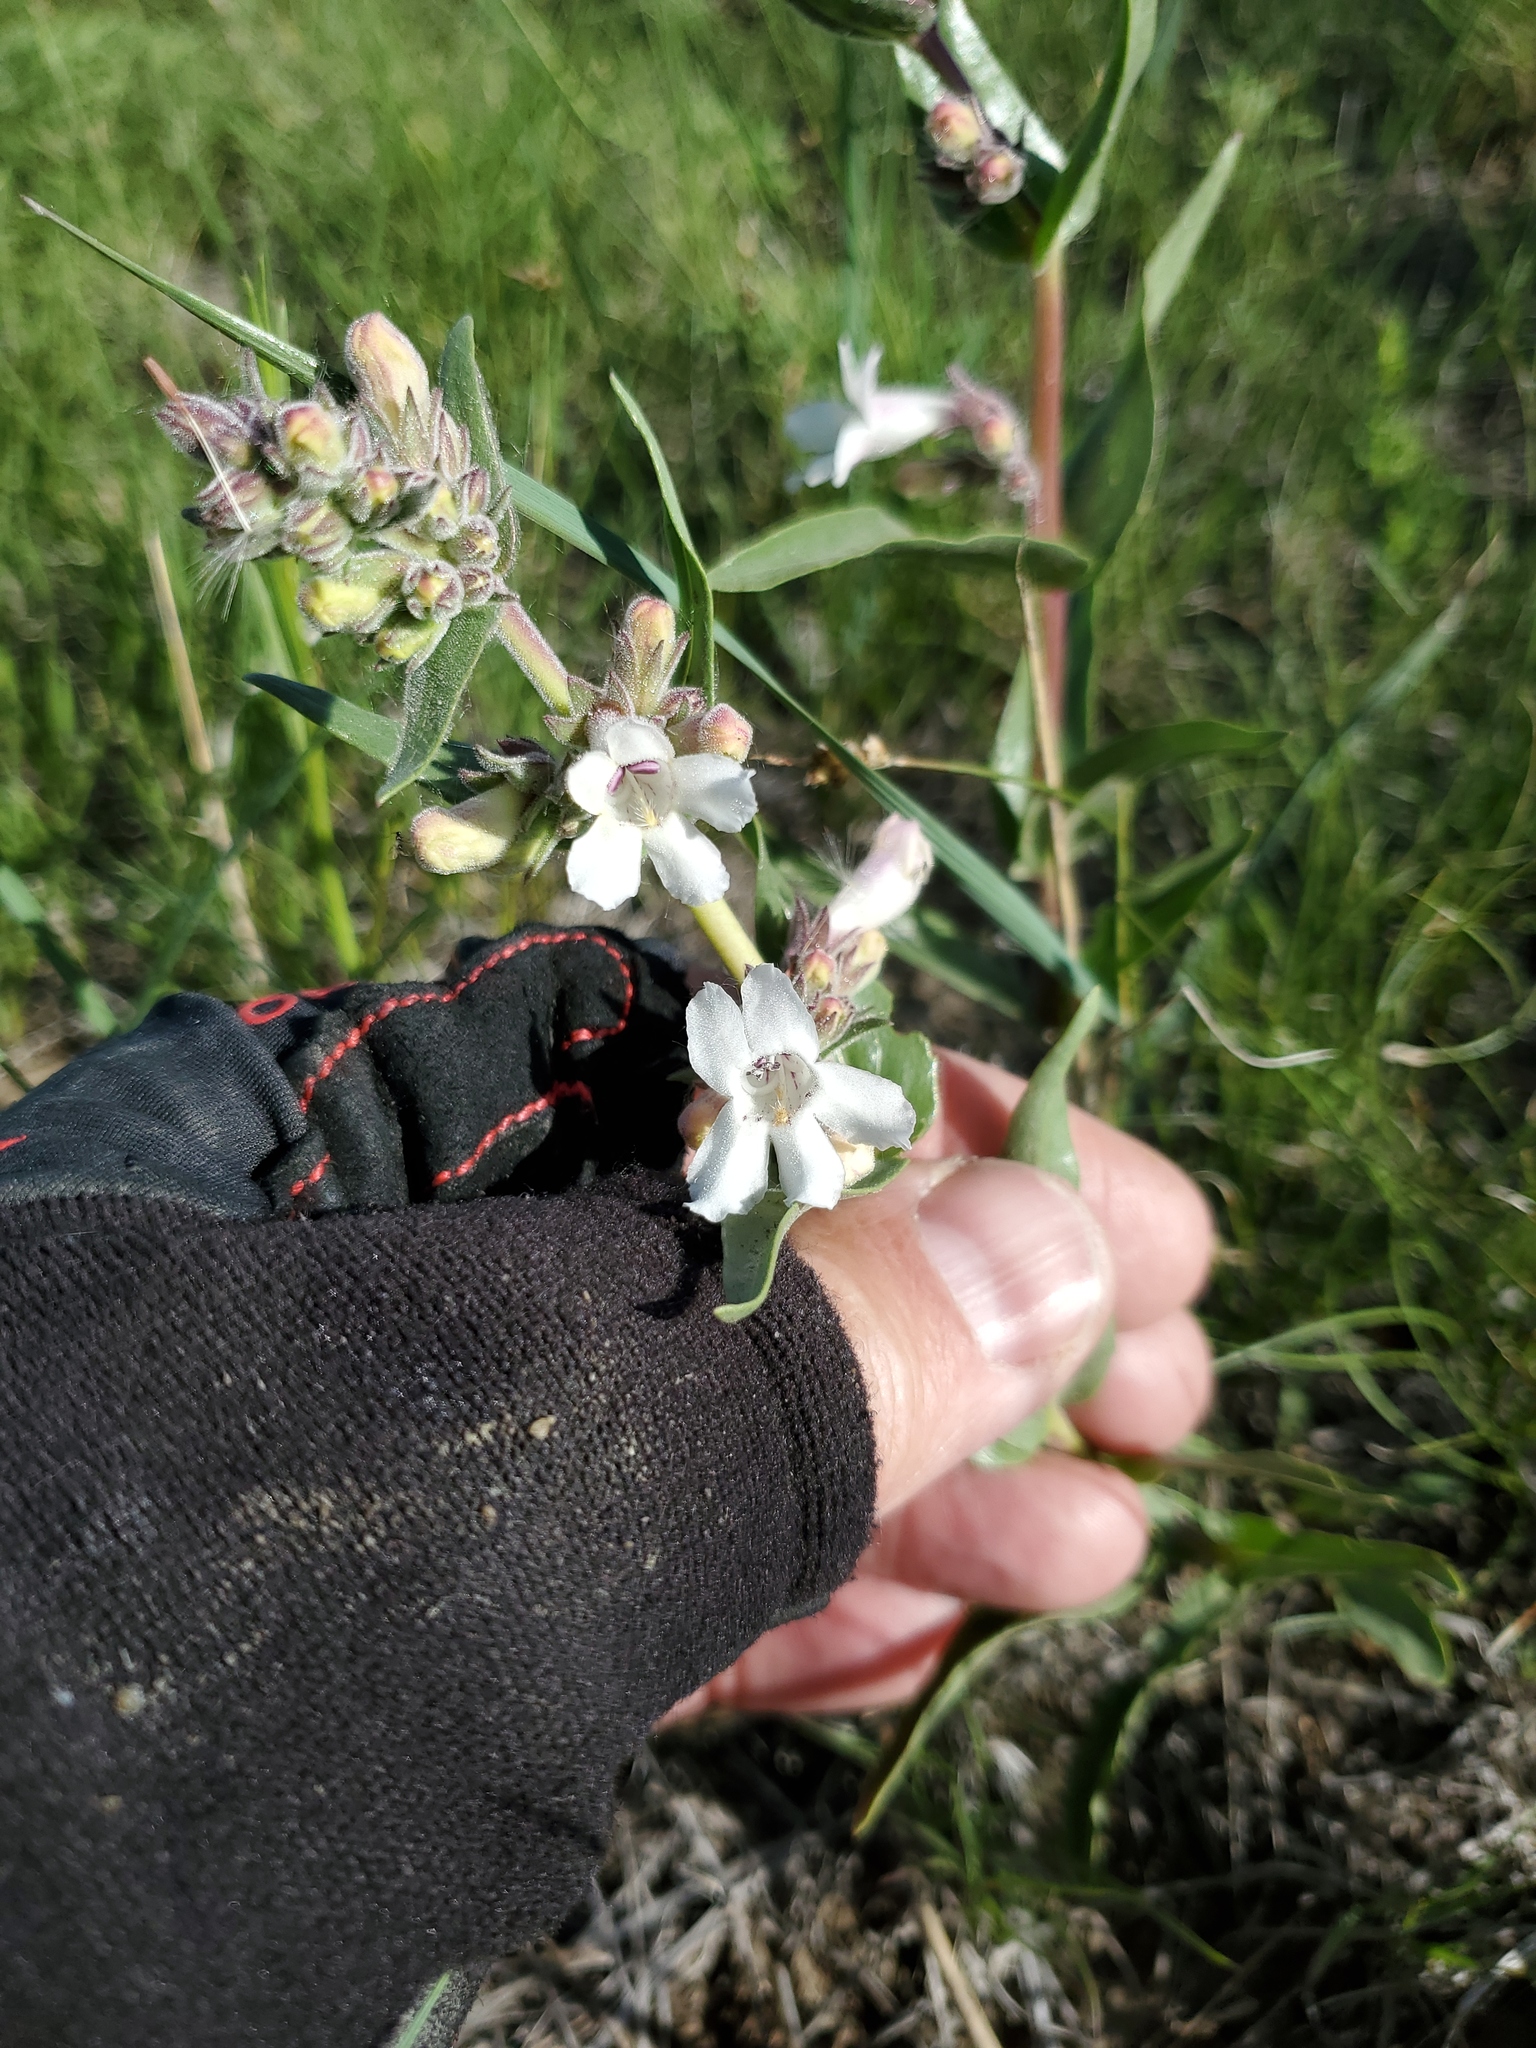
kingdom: Plantae
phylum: Tracheophyta
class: Magnoliopsida
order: Lamiales
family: Plantaginaceae
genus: Penstemon
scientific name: Penstemon albidus
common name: White beardtongue
